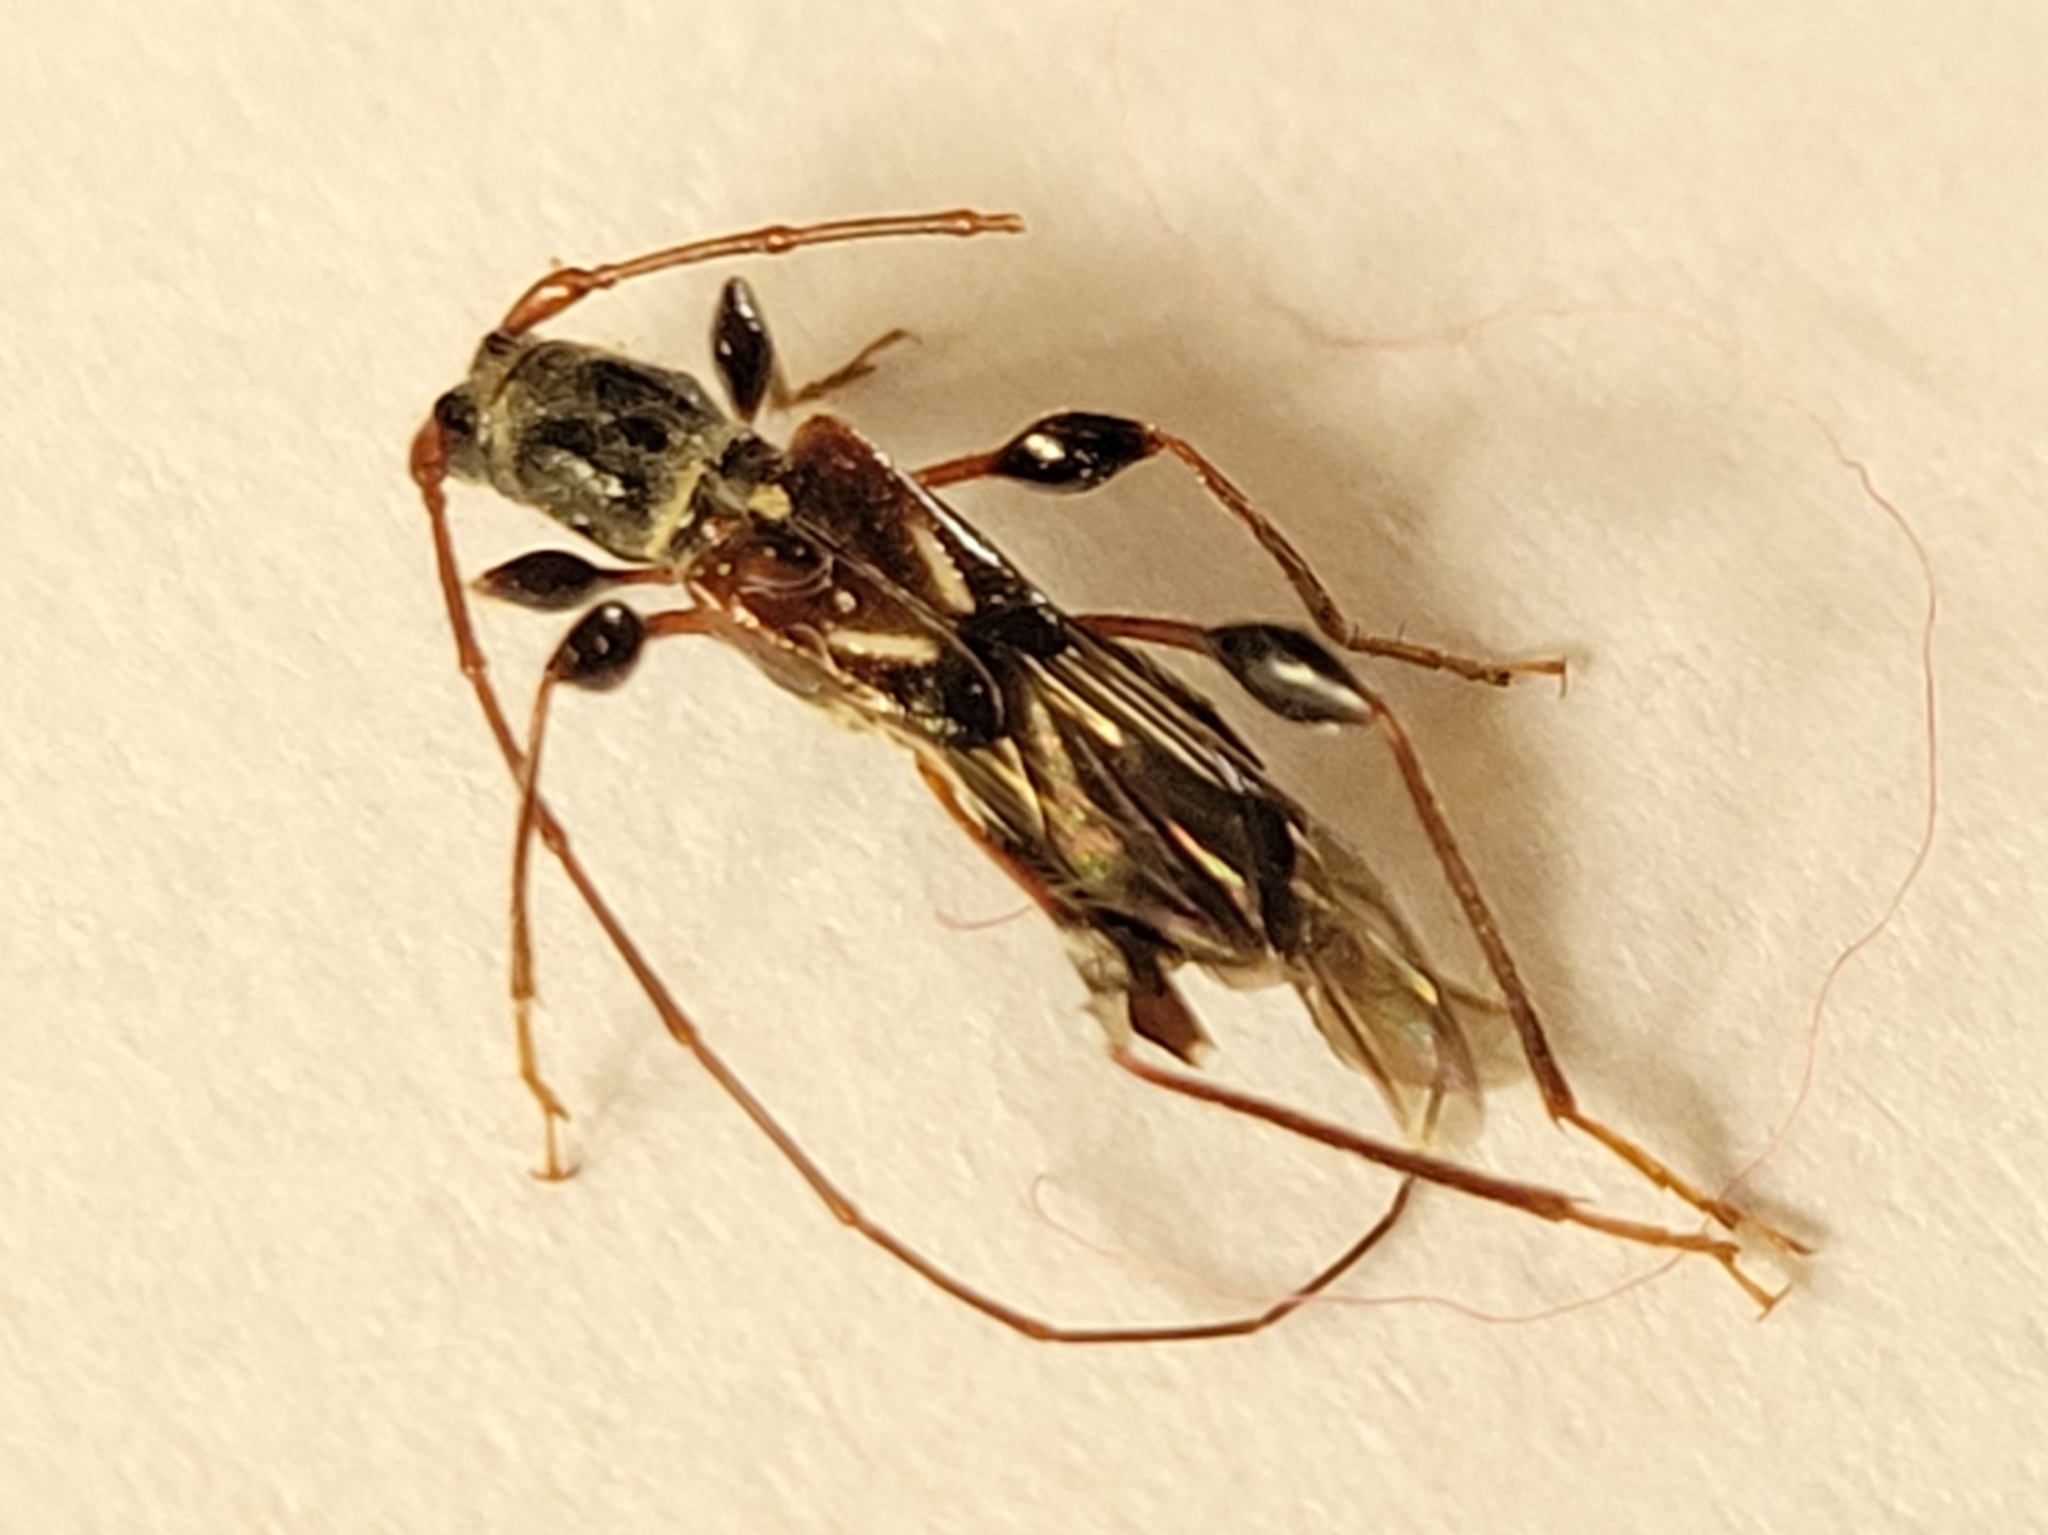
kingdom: Animalia
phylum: Arthropoda
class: Insecta
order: Coleoptera
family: Cerambycidae
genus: Molorchus
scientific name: Molorchus minor
